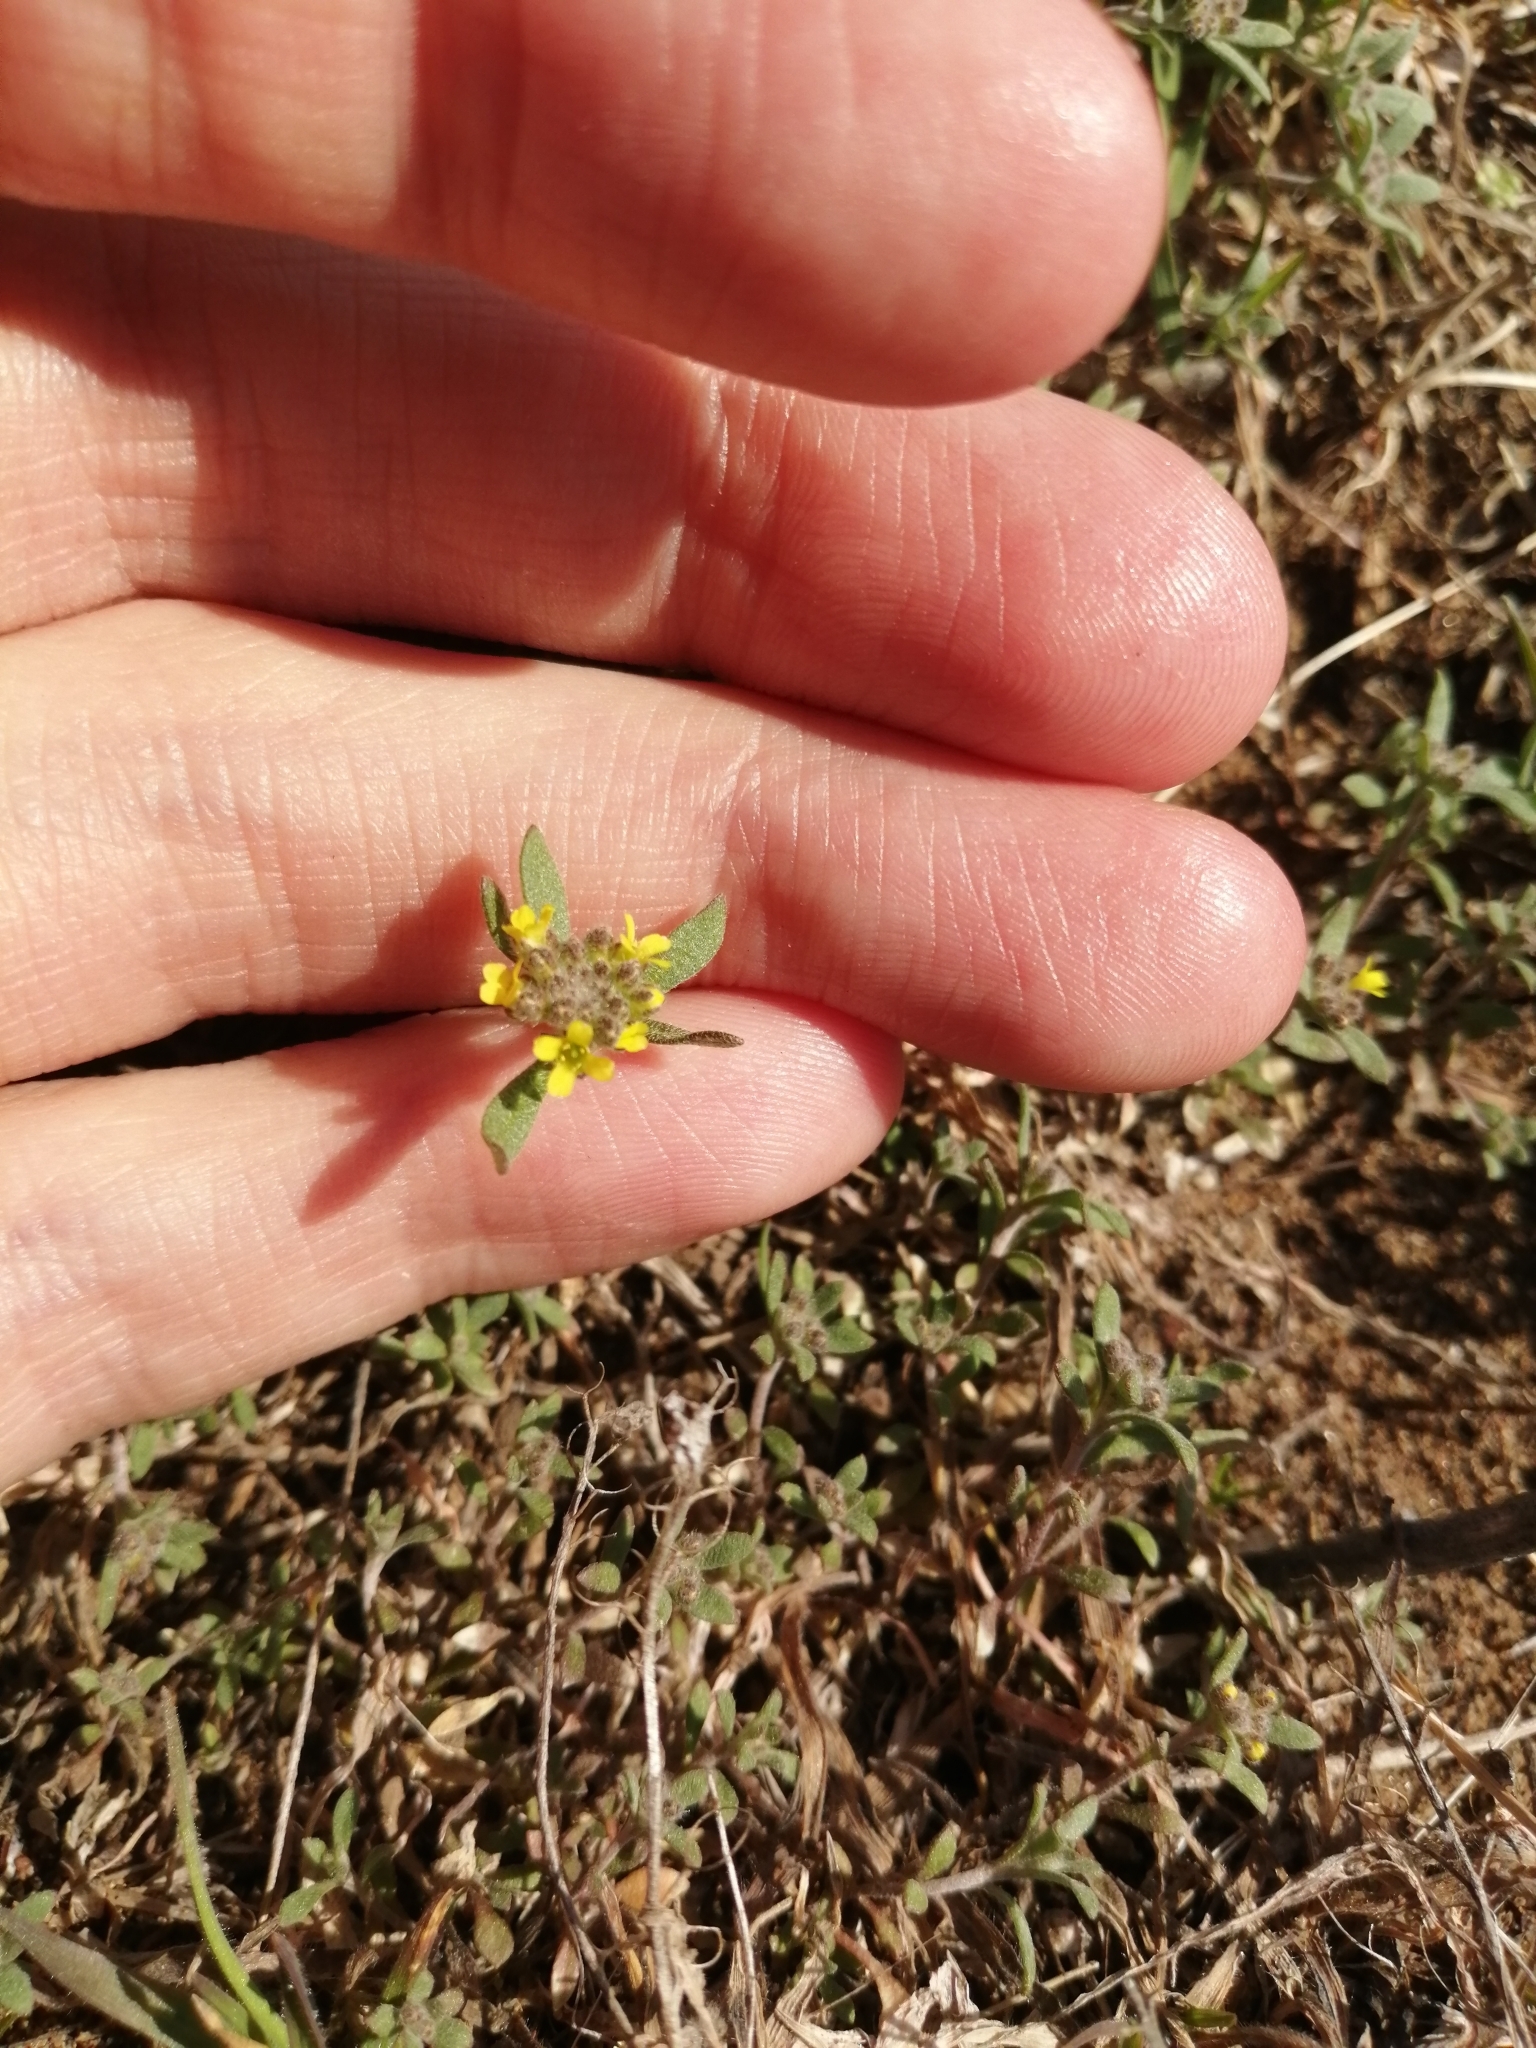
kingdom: Plantae
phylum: Tracheophyta
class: Magnoliopsida
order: Brassicales
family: Brassicaceae
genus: Alyssum
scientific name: Alyssum turkestanicum
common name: Desert alyssum
